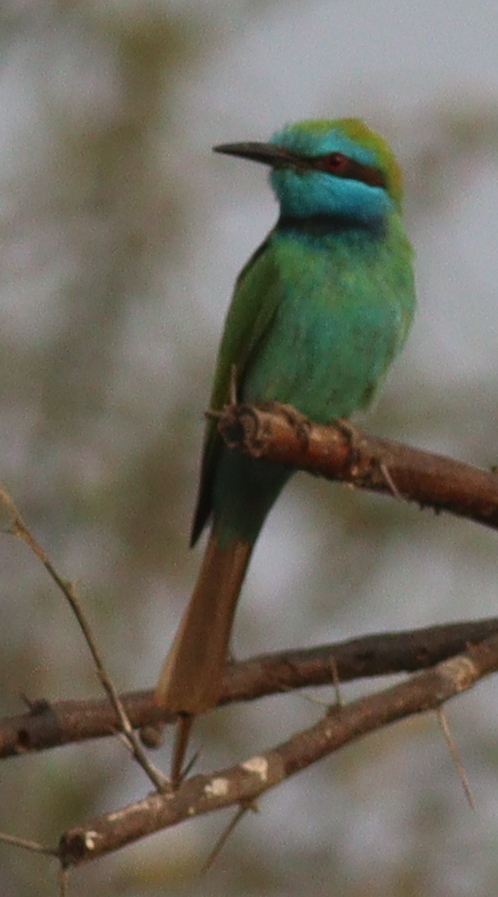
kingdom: Animalia
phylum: Chordata
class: Aves
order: Coraciiformes
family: Meropidae
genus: Merops
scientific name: Merops cyanophrys
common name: Arabian green bee-eater
